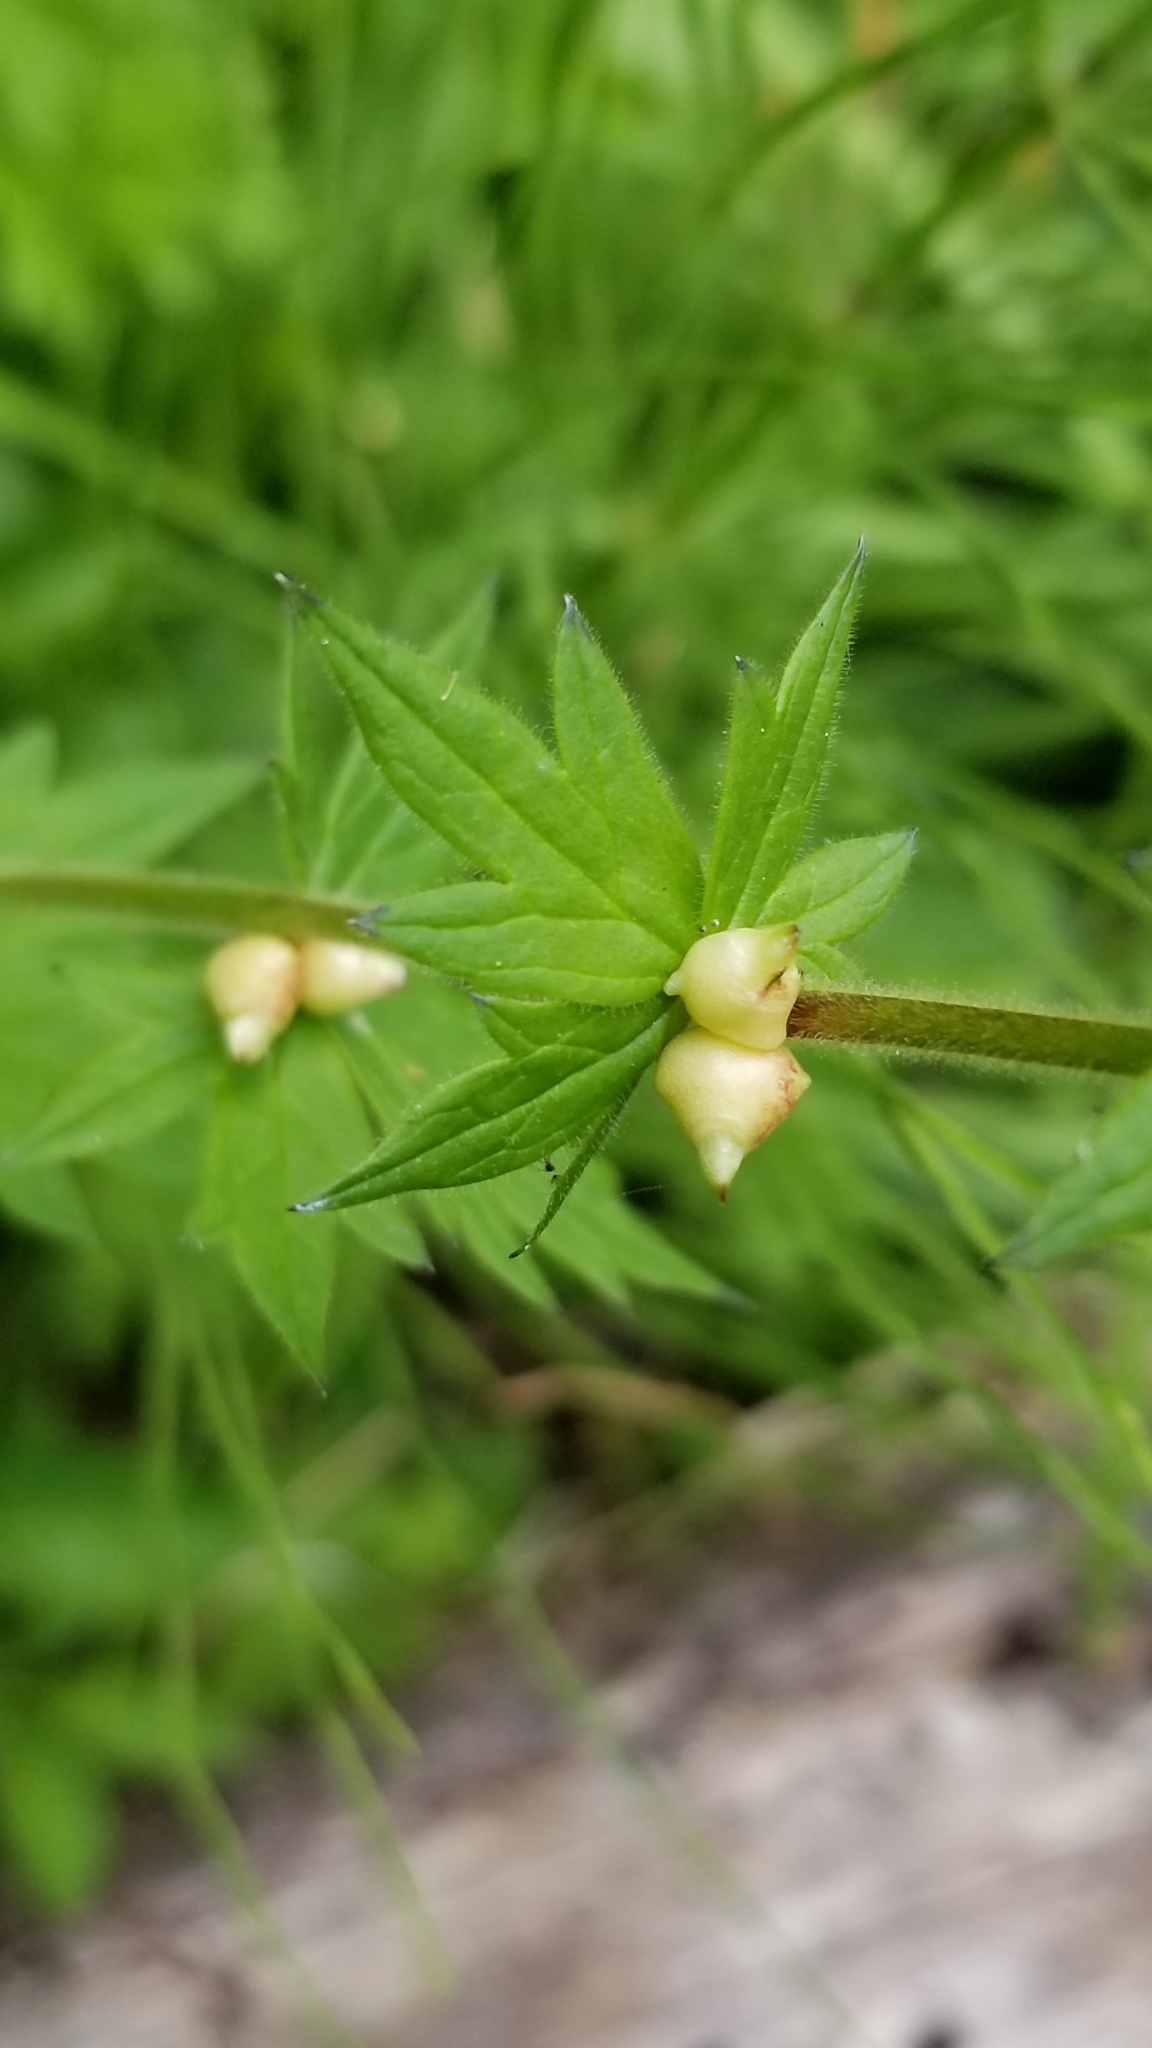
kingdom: Plantae
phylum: Tracheophyta
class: Magnoliopsida
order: Ranunculales
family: Ranunculaceae
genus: Aconitum
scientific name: Aconitum columbianum
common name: Columbia aconite
